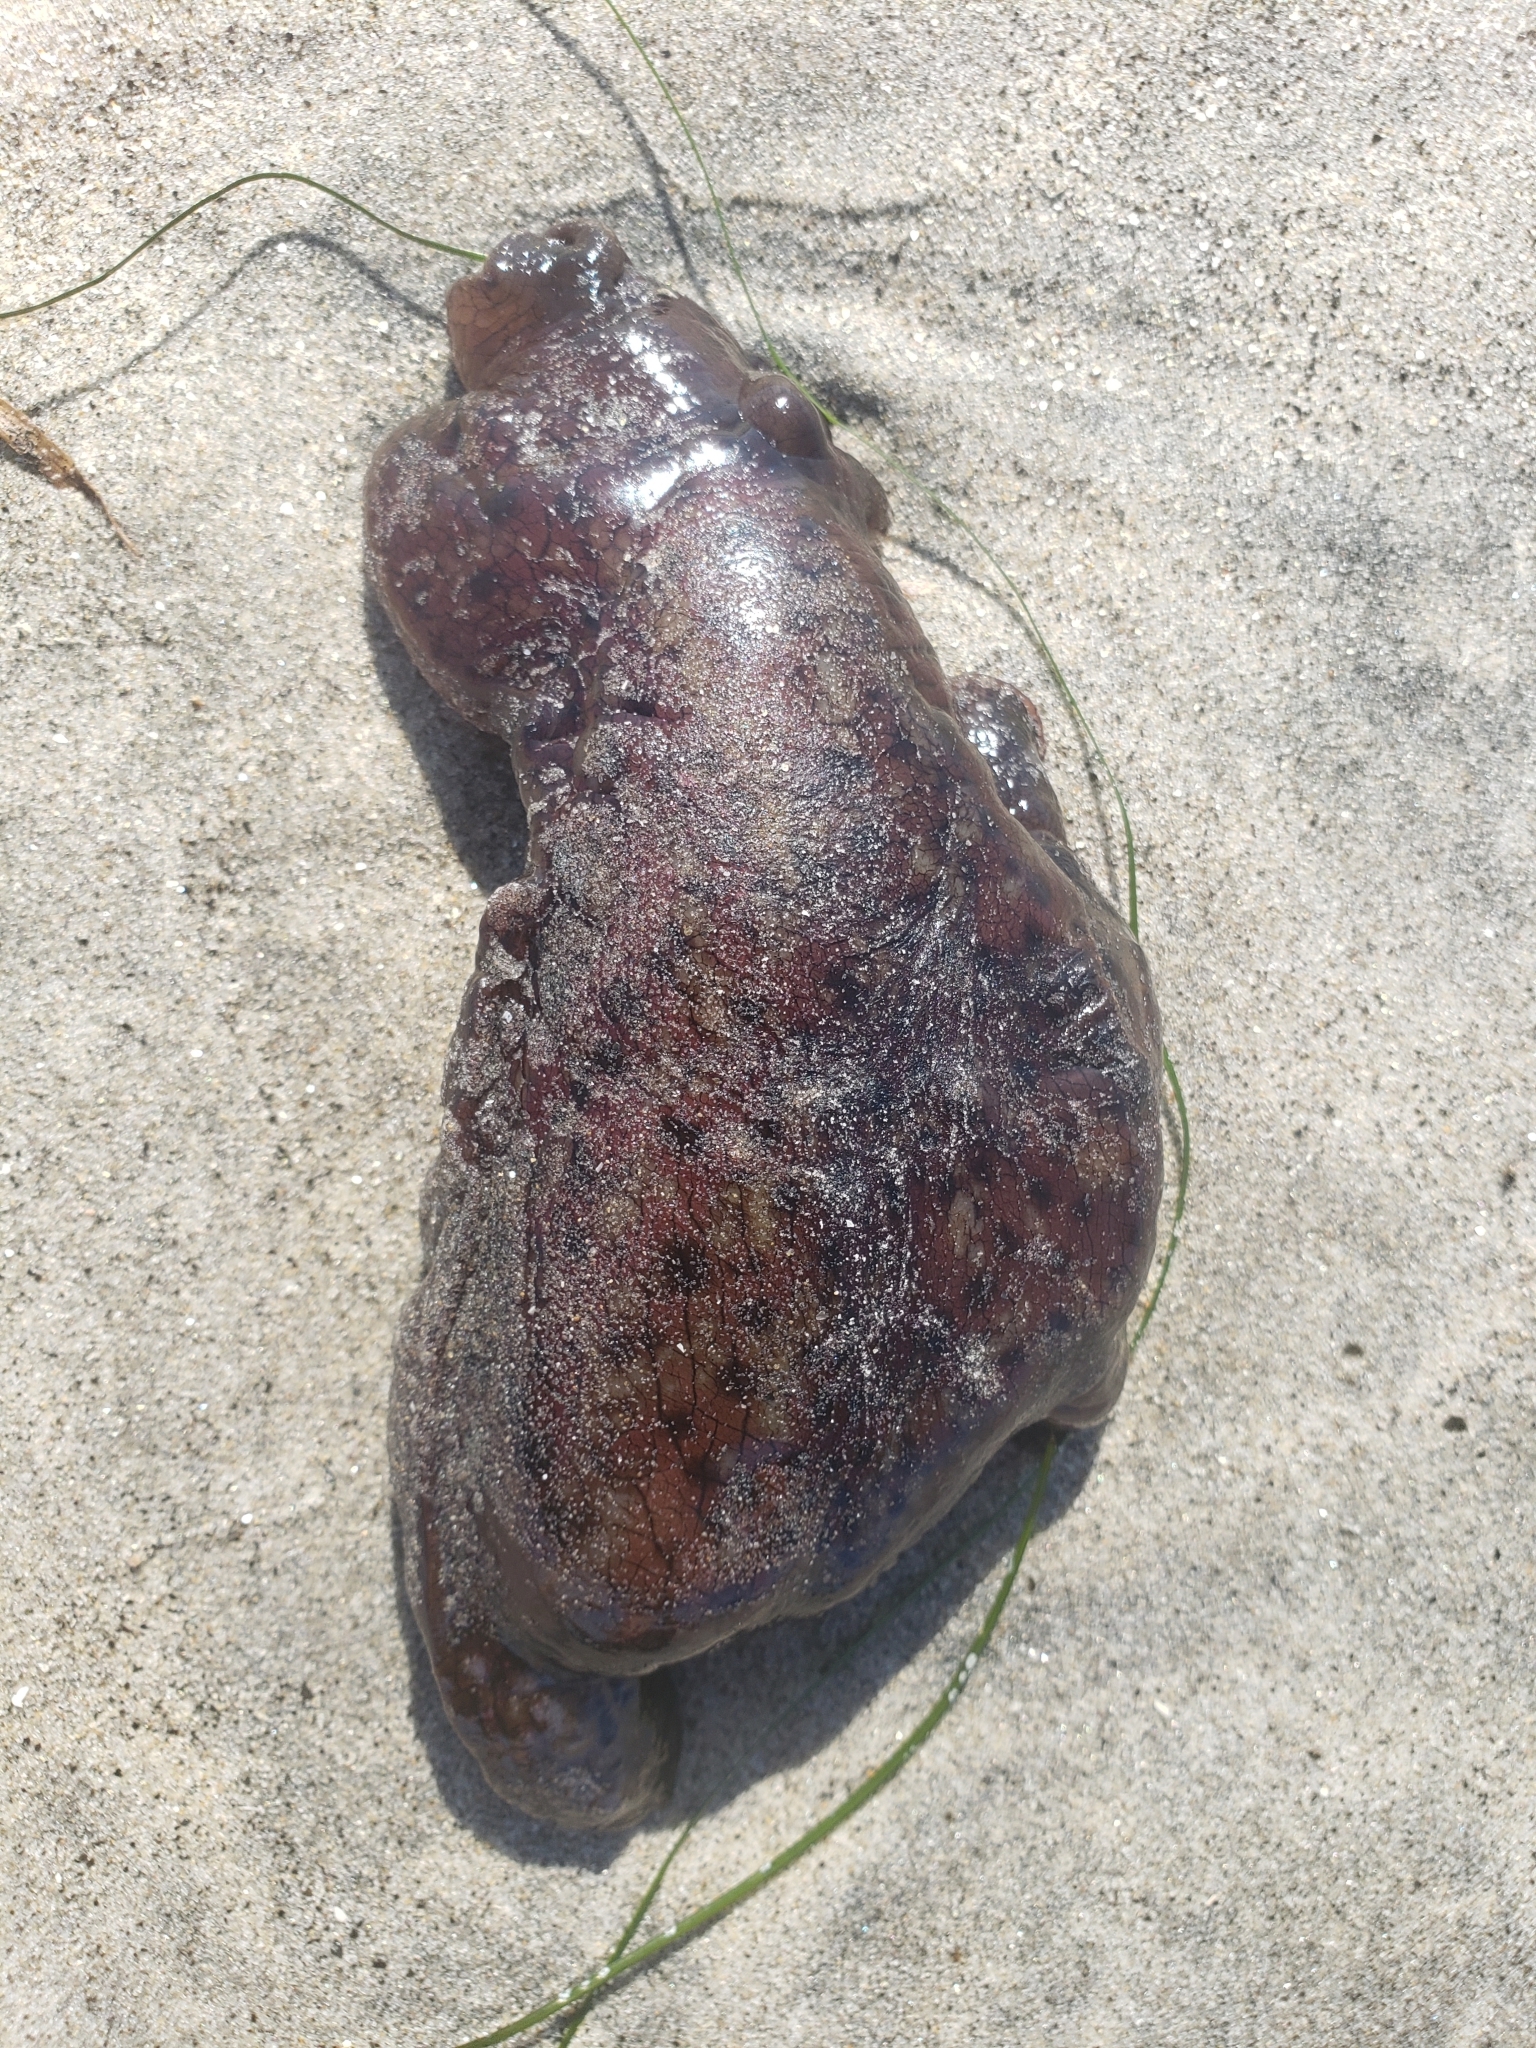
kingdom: Animalia
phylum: Mollusca
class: Gastropoda
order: Aplysiida
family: Aplysiidae
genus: Aplysia
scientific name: Aplysia californica
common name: California seahare
